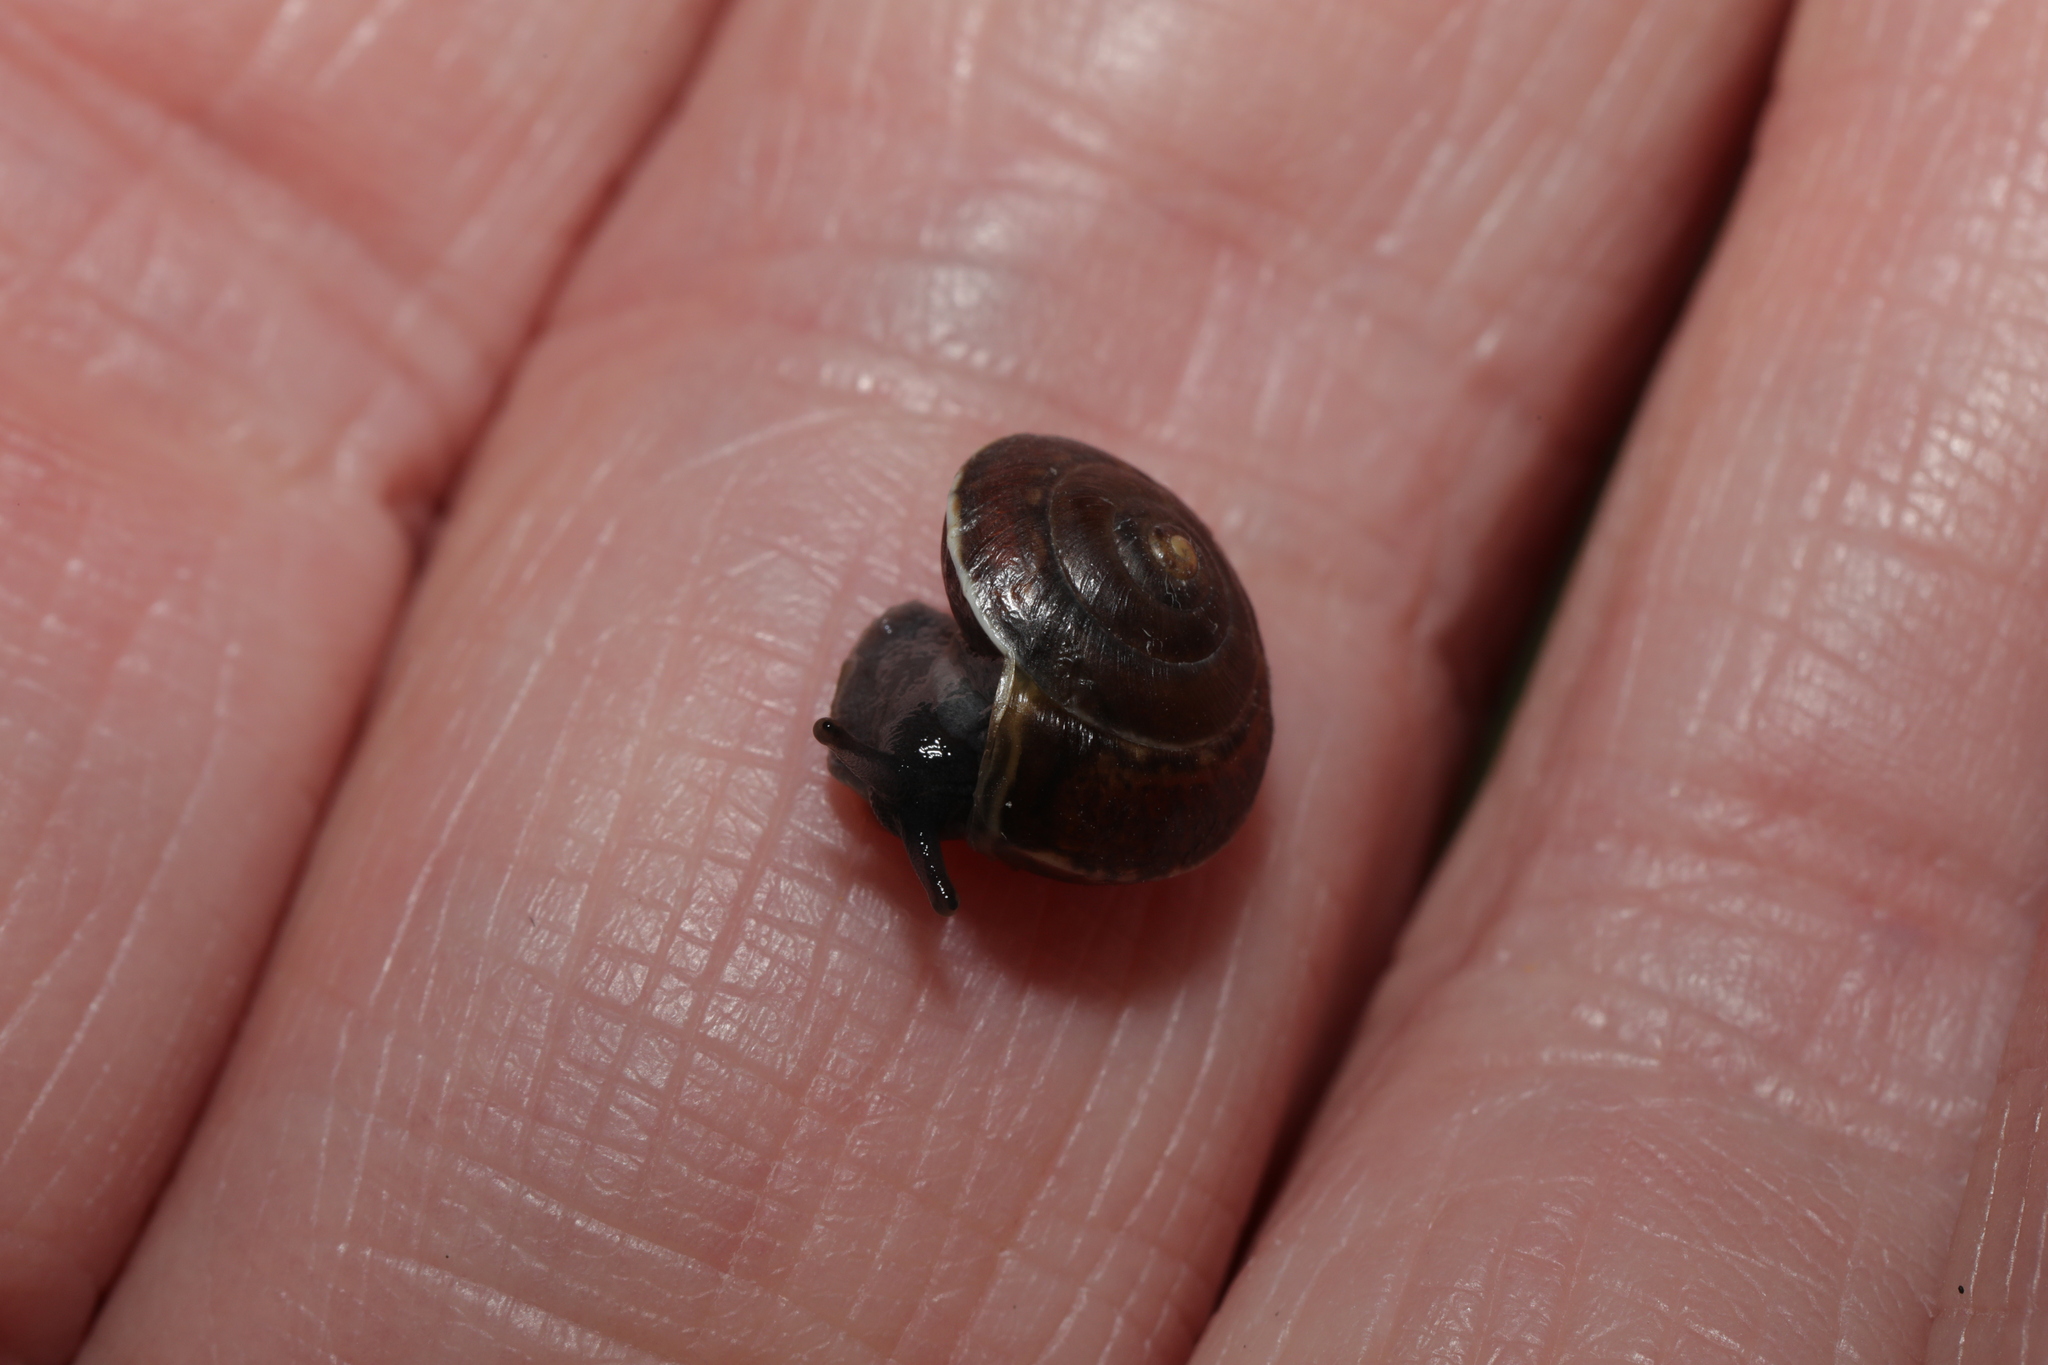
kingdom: Animalia
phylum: Mollusca
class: Gastropoda
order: Stylommatophora
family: Hygromiidae
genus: Hygromia
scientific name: Hygromia cinctella
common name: Girdled snail
